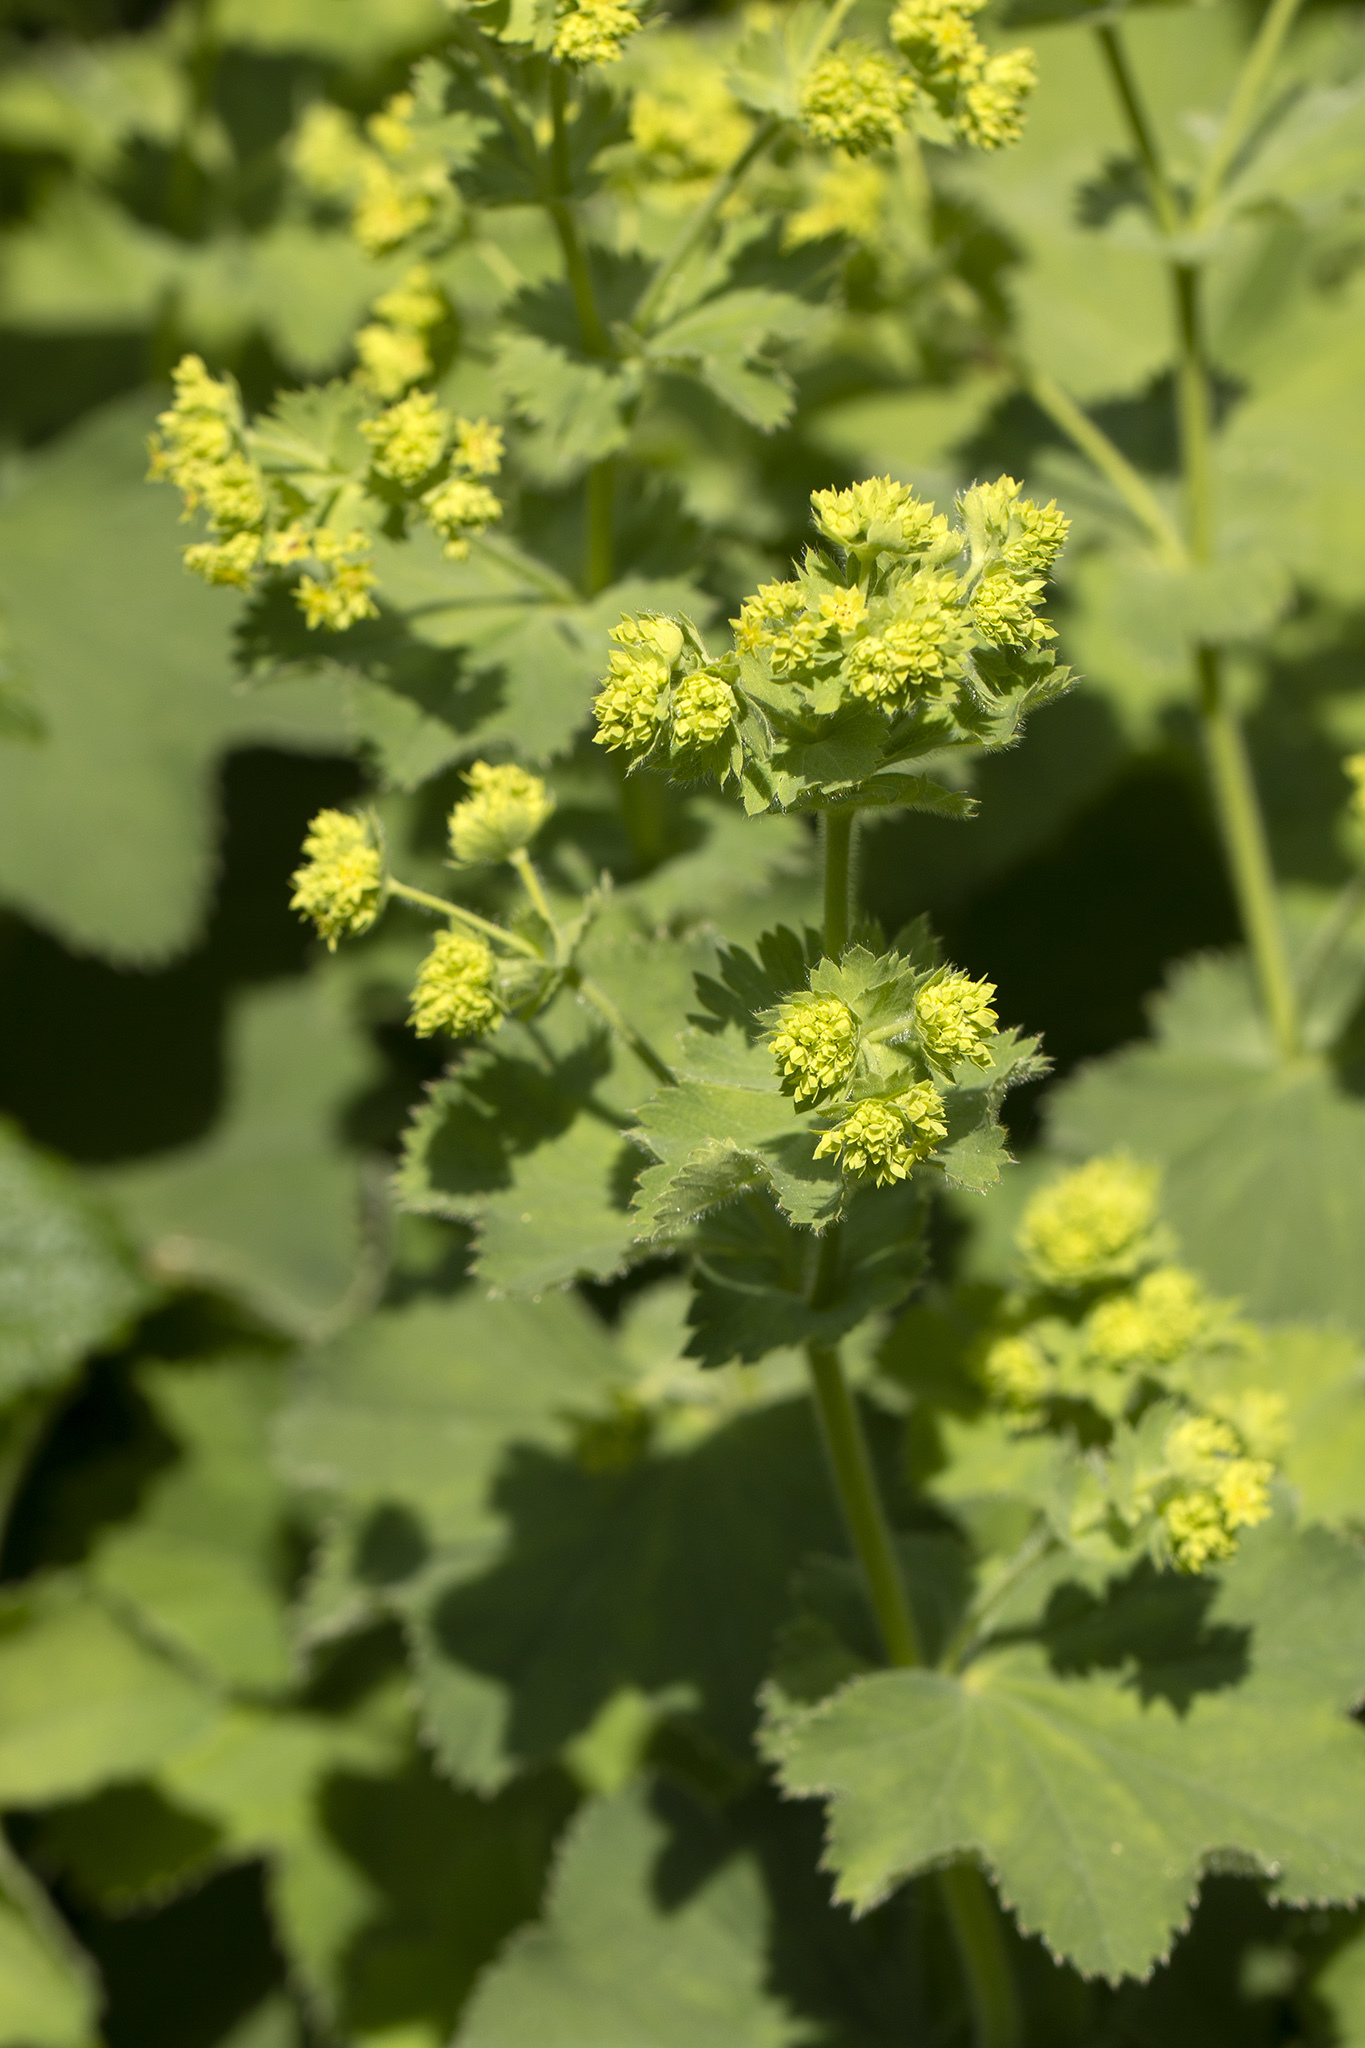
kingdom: Plantae
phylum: Tracheophyta
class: Magnoliopsida
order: Rosales
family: Rosaceae
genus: Alchemilla
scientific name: Alchemilla mollis
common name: Lady's-mantle
